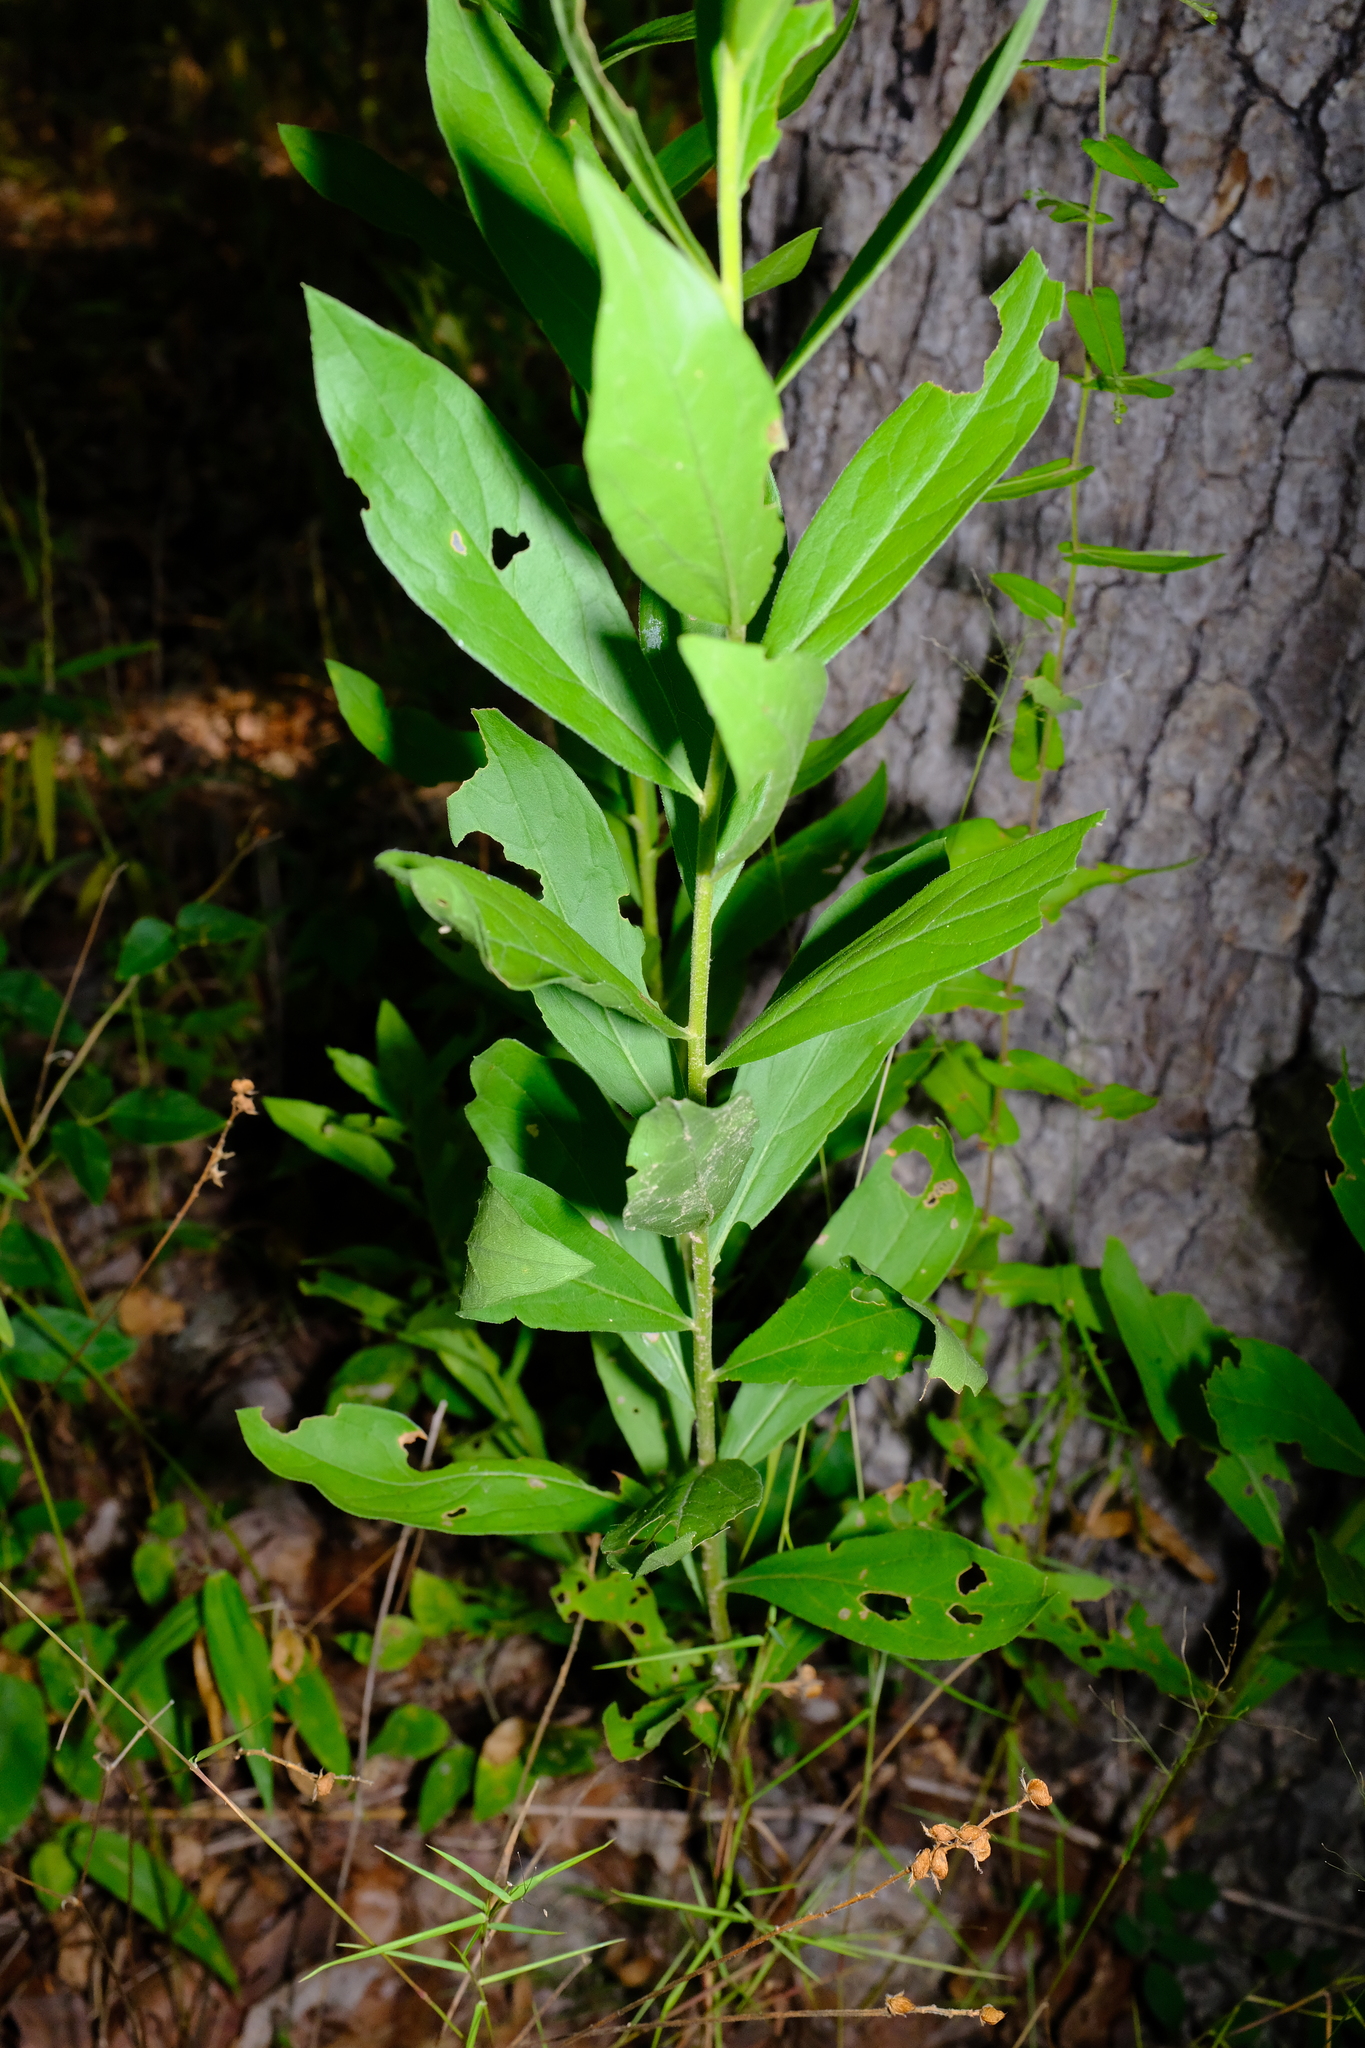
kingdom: Plantae
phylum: Tracheophyta
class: Magnoliopsida
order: Asterales
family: Asteraceae
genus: Solidago
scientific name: Solidago petiolaris
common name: Downy ragged goldenrod
